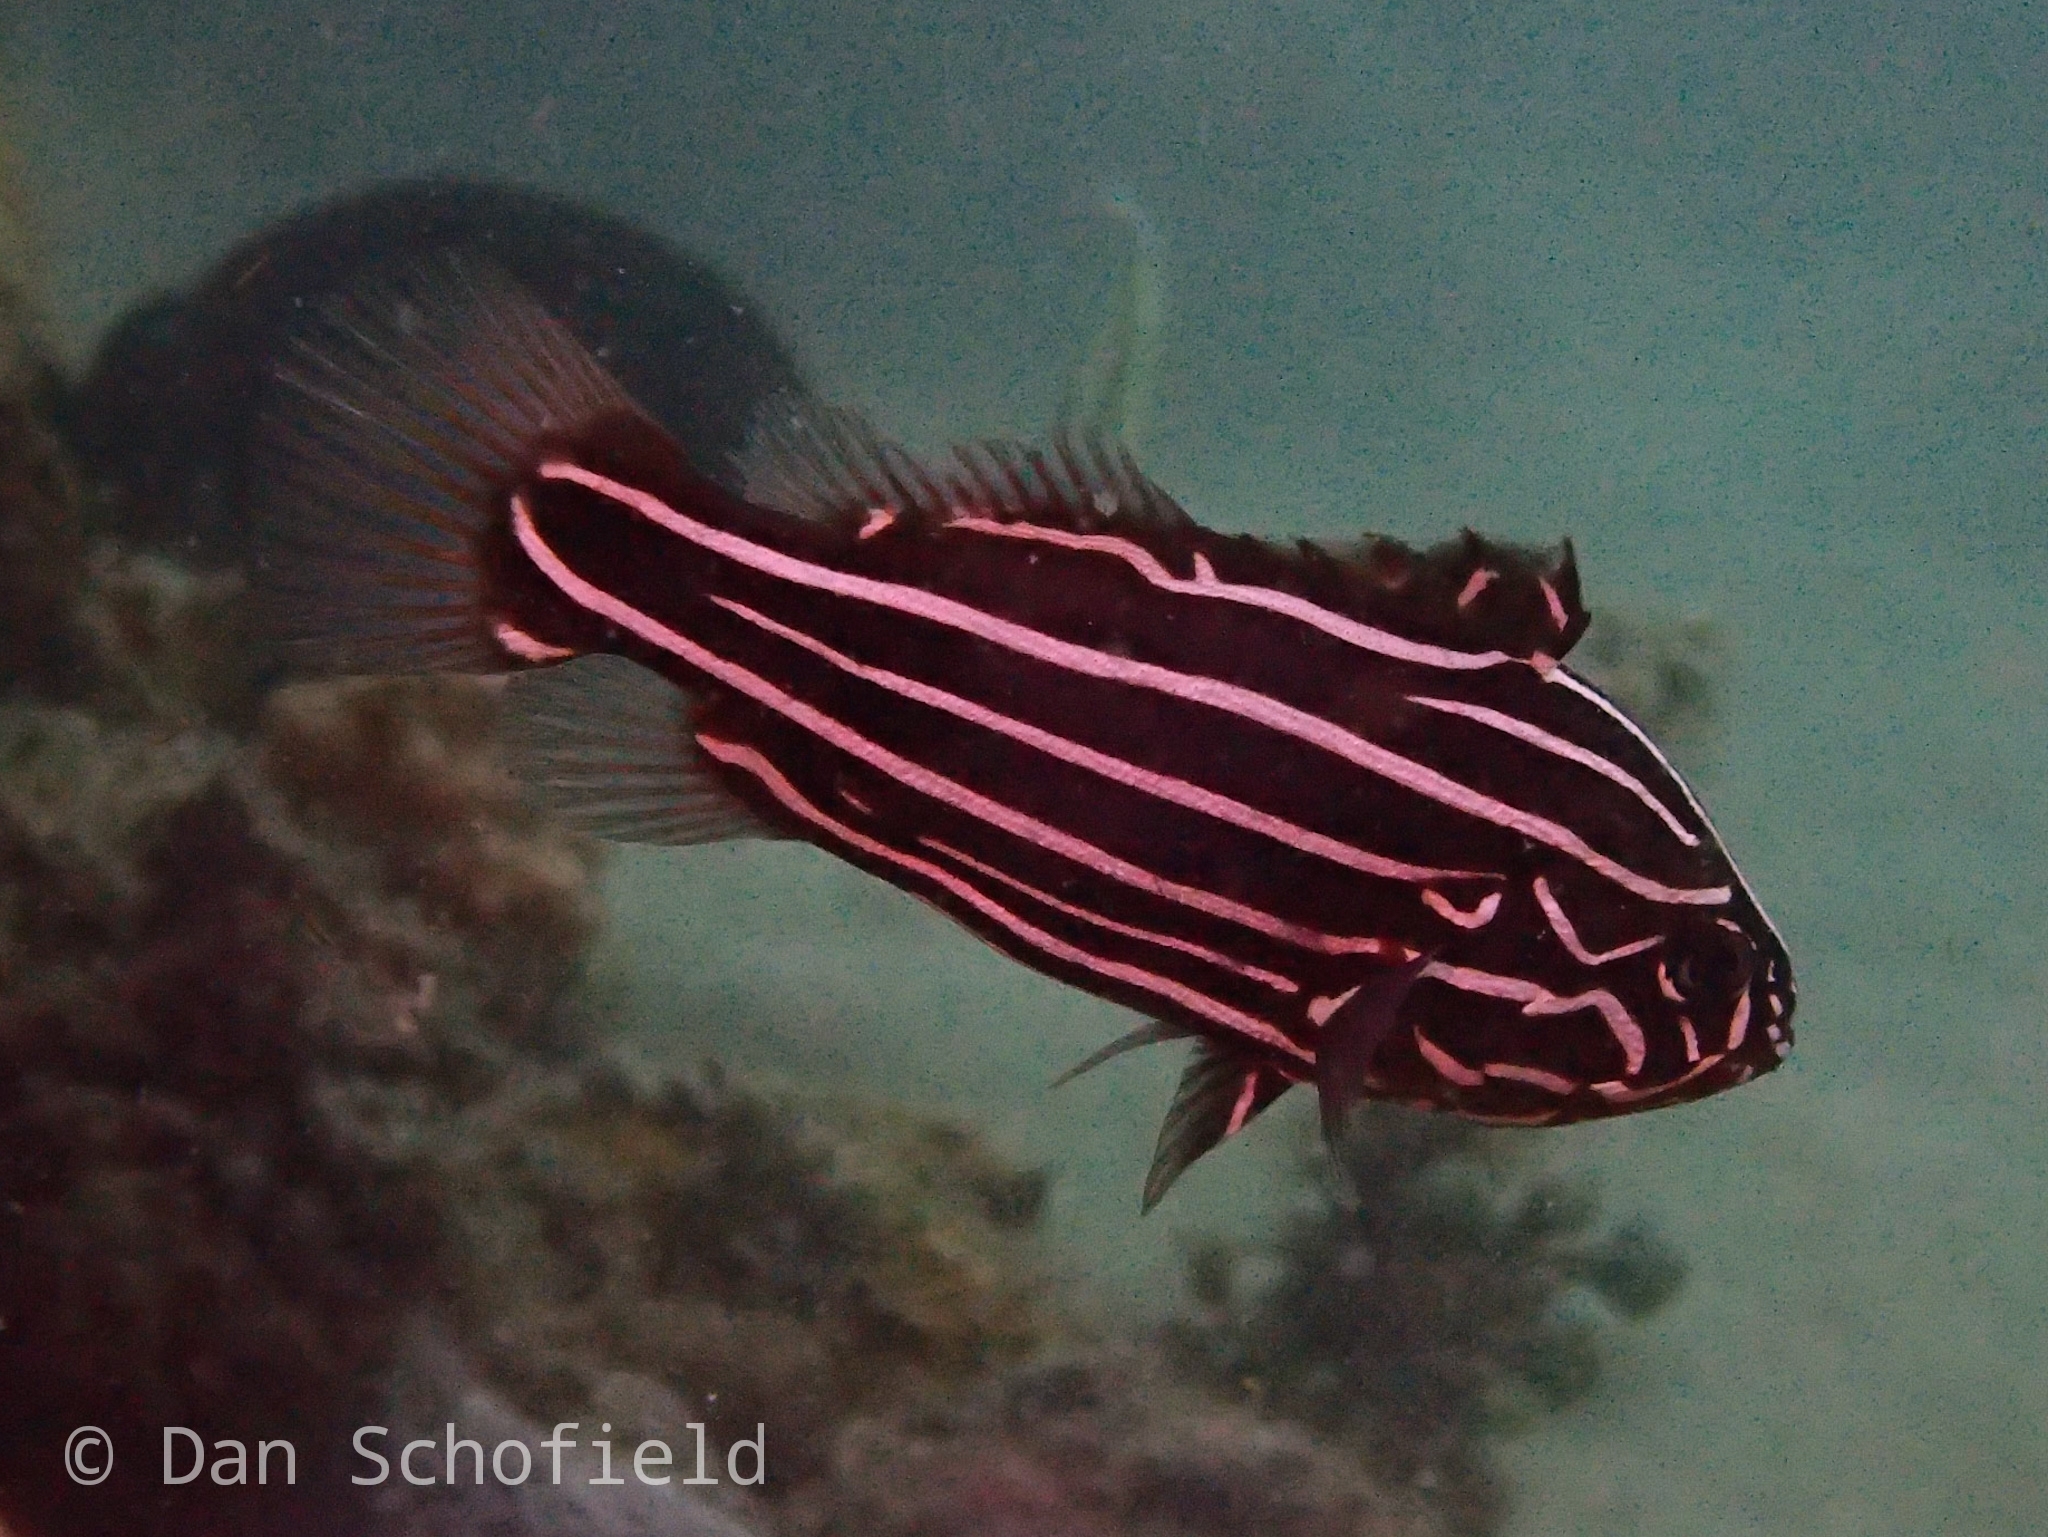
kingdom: Animalia
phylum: Chordata
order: Perciformes
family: Serranidae
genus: Grammistes
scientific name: Grammistes sexlineatus
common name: Sixline soapfish
